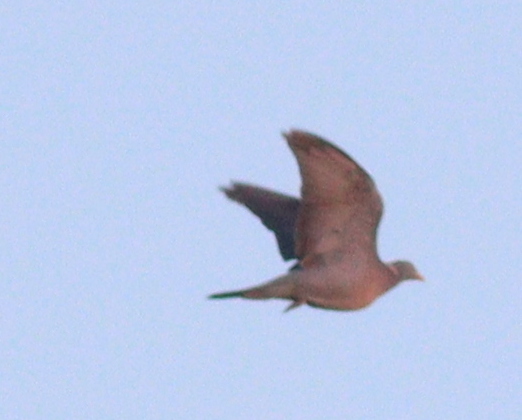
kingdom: Animalia
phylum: Chordata
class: Aves
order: Columbiformes
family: Columbidae
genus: Columba
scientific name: Columba palumbus
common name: Common wood pigeon
